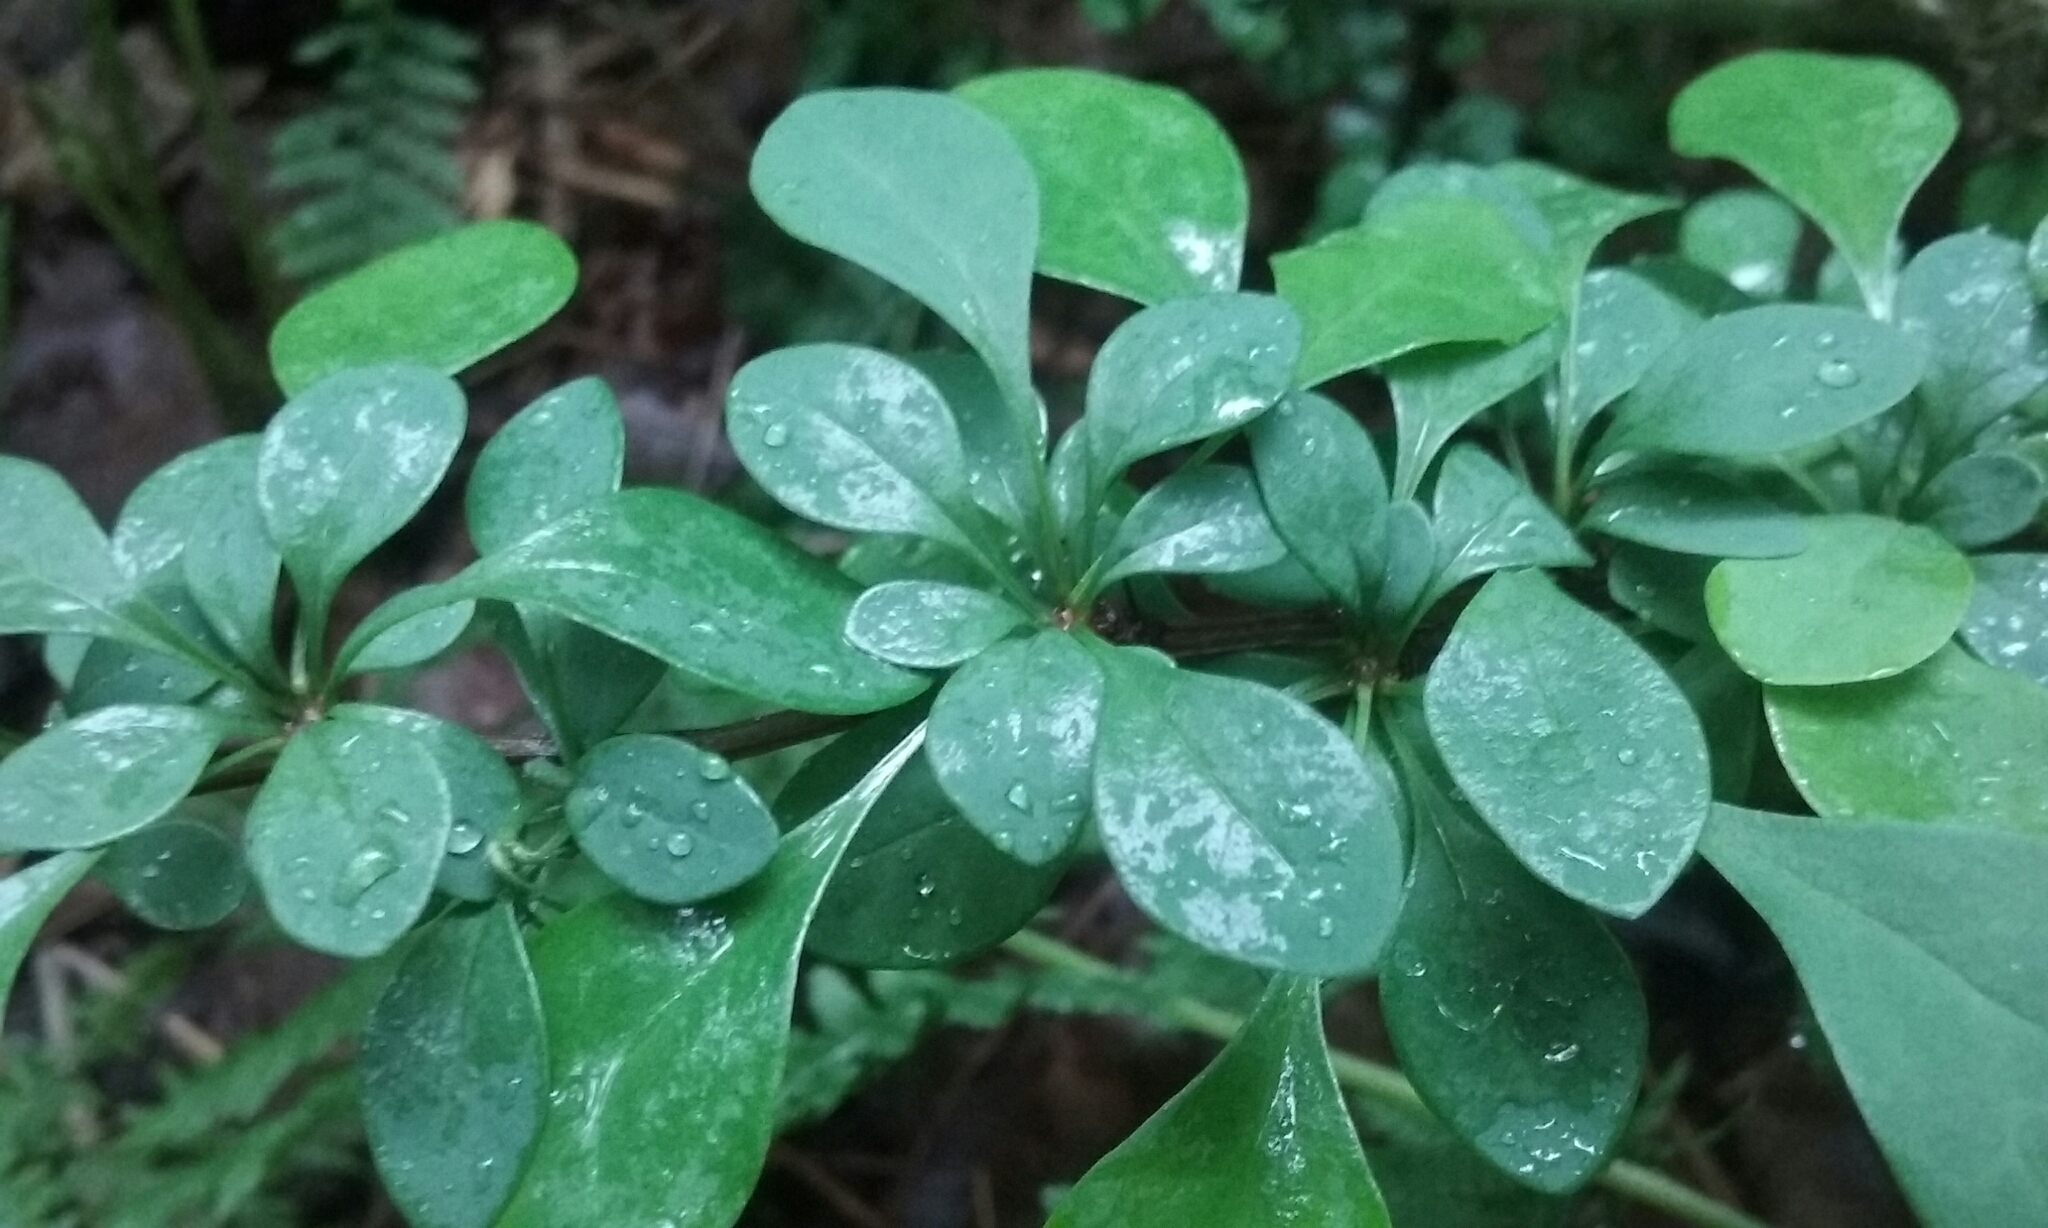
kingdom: Plantae
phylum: Tracheophyta
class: Magnoliopsida
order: Ranunculales
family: Berberidaceae
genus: Berberis
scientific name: Berberis thunbergii
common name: Japanese barberry
